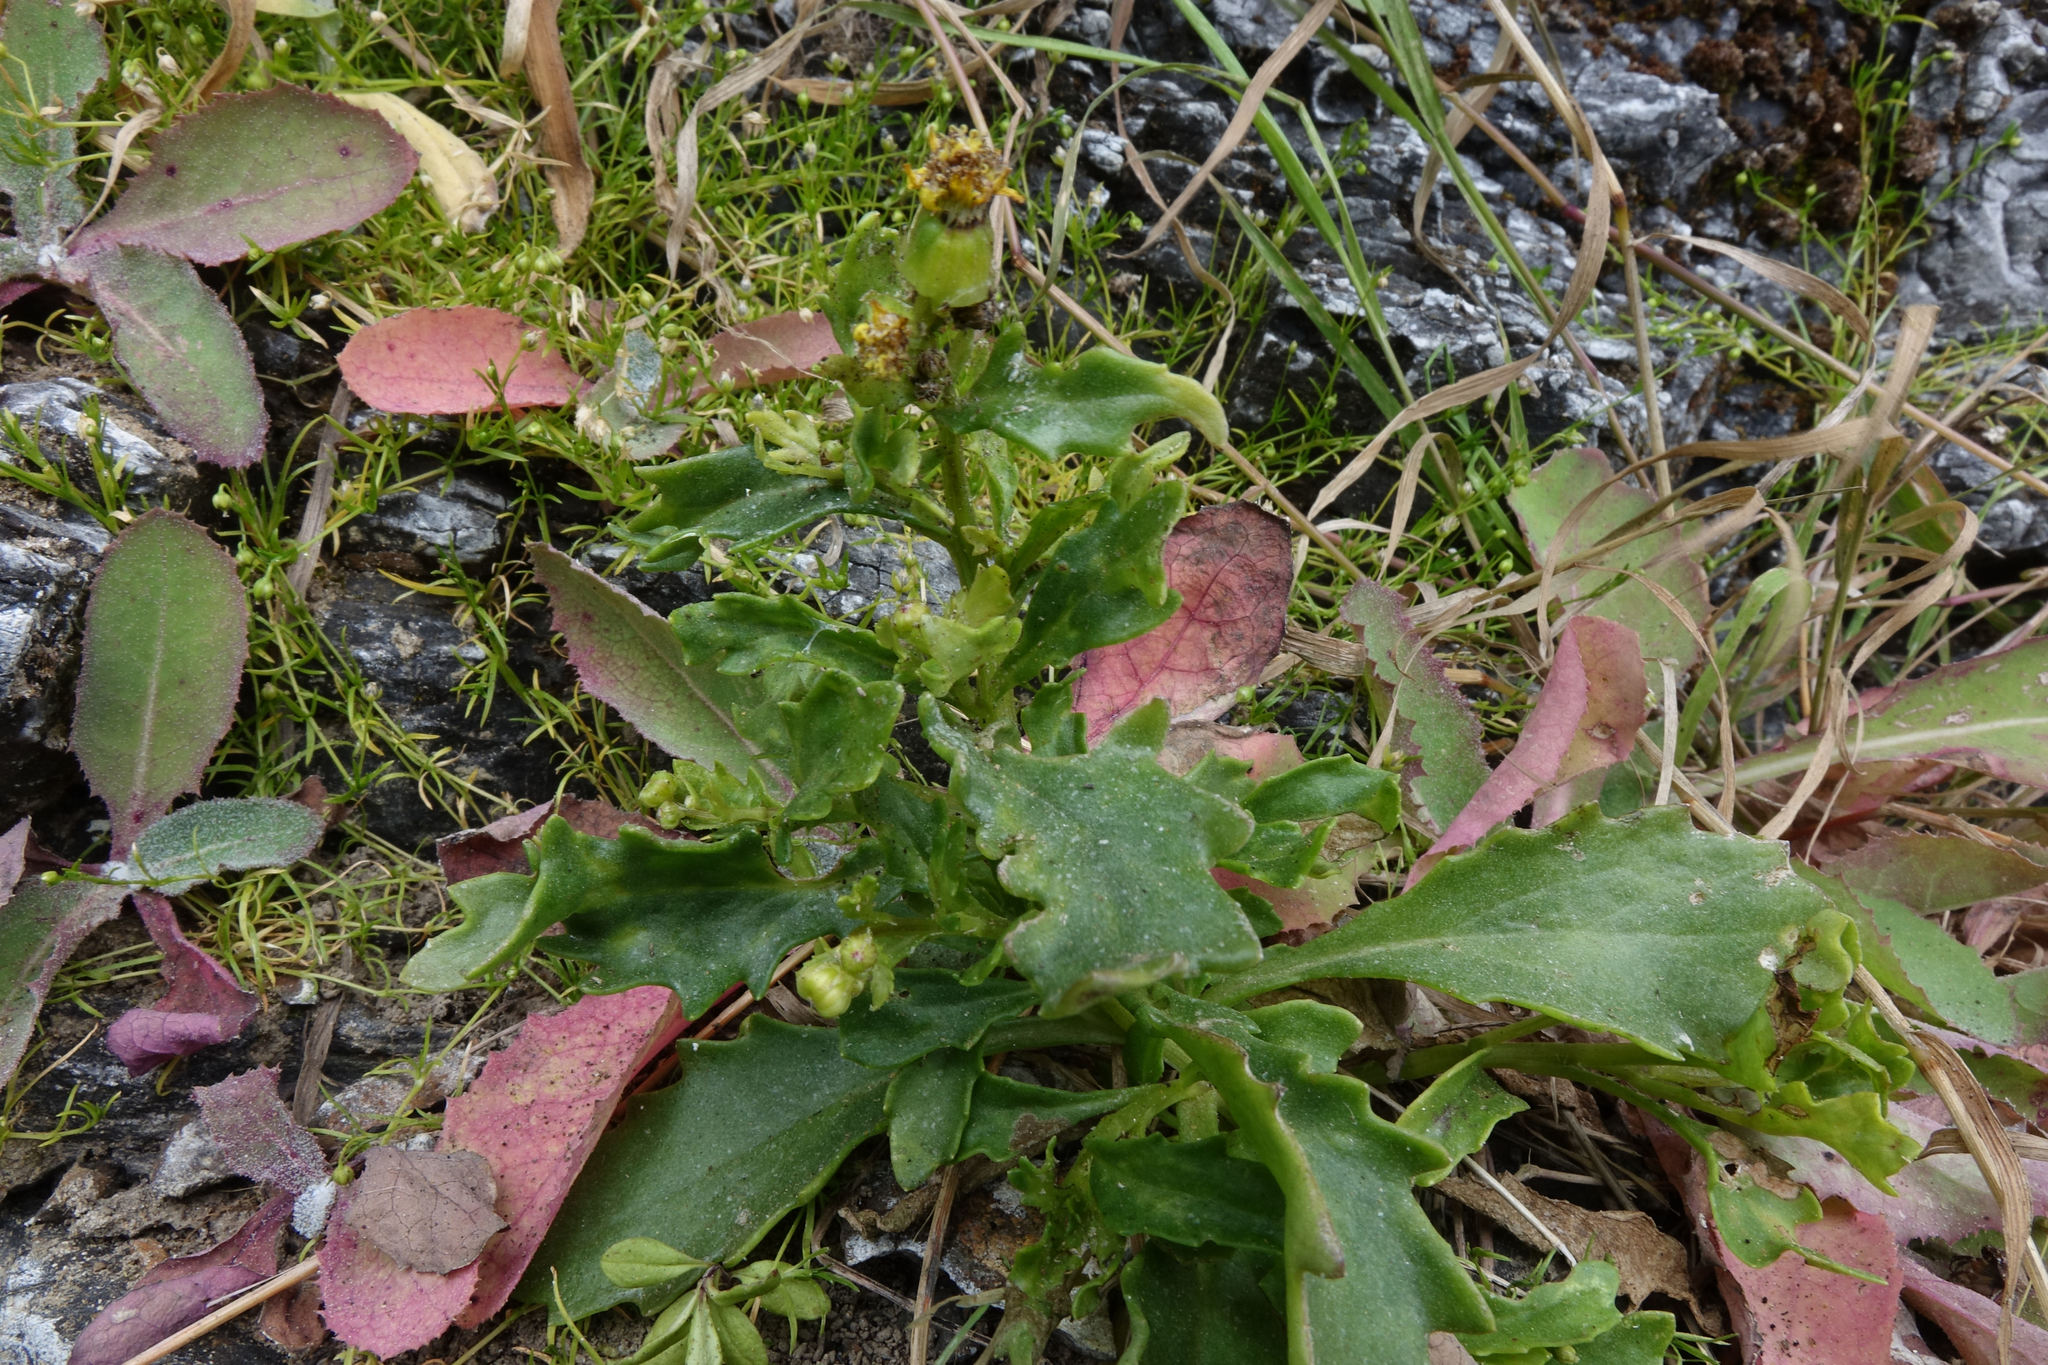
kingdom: Plantae
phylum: Tracheophyta
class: Magnoliopsida
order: Asterales
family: Asteraceae
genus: Senecio
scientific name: Senecio matatini
